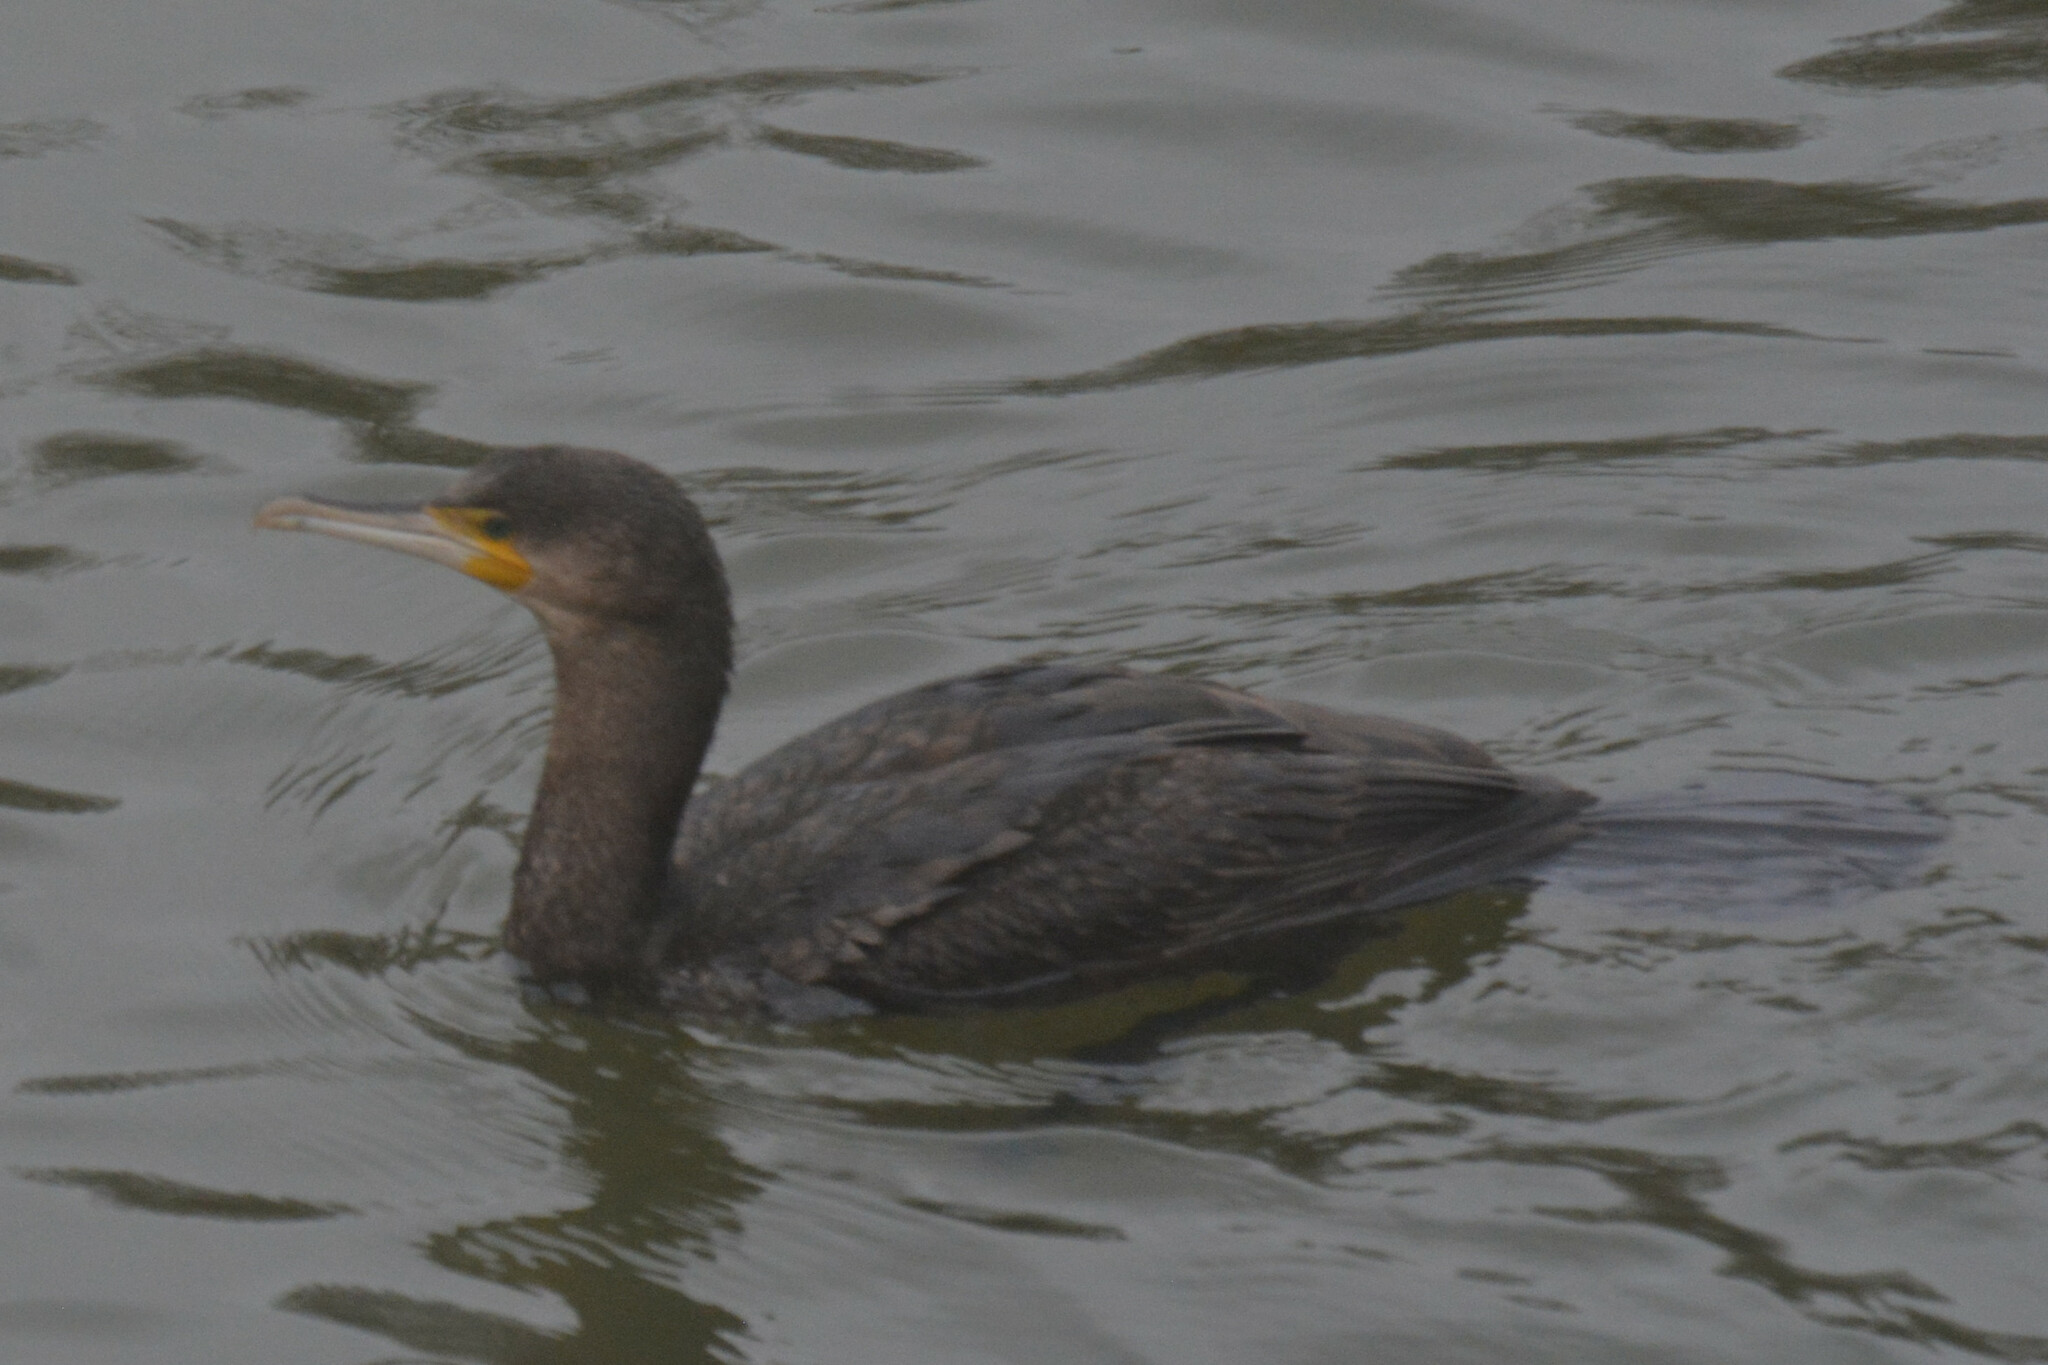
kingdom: Animalia
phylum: Chordata
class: Aves
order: Suliformes
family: Phalacrocoracidae
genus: Phalacrocorax
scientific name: Phalacrocorax carbo
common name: Great cormorant
